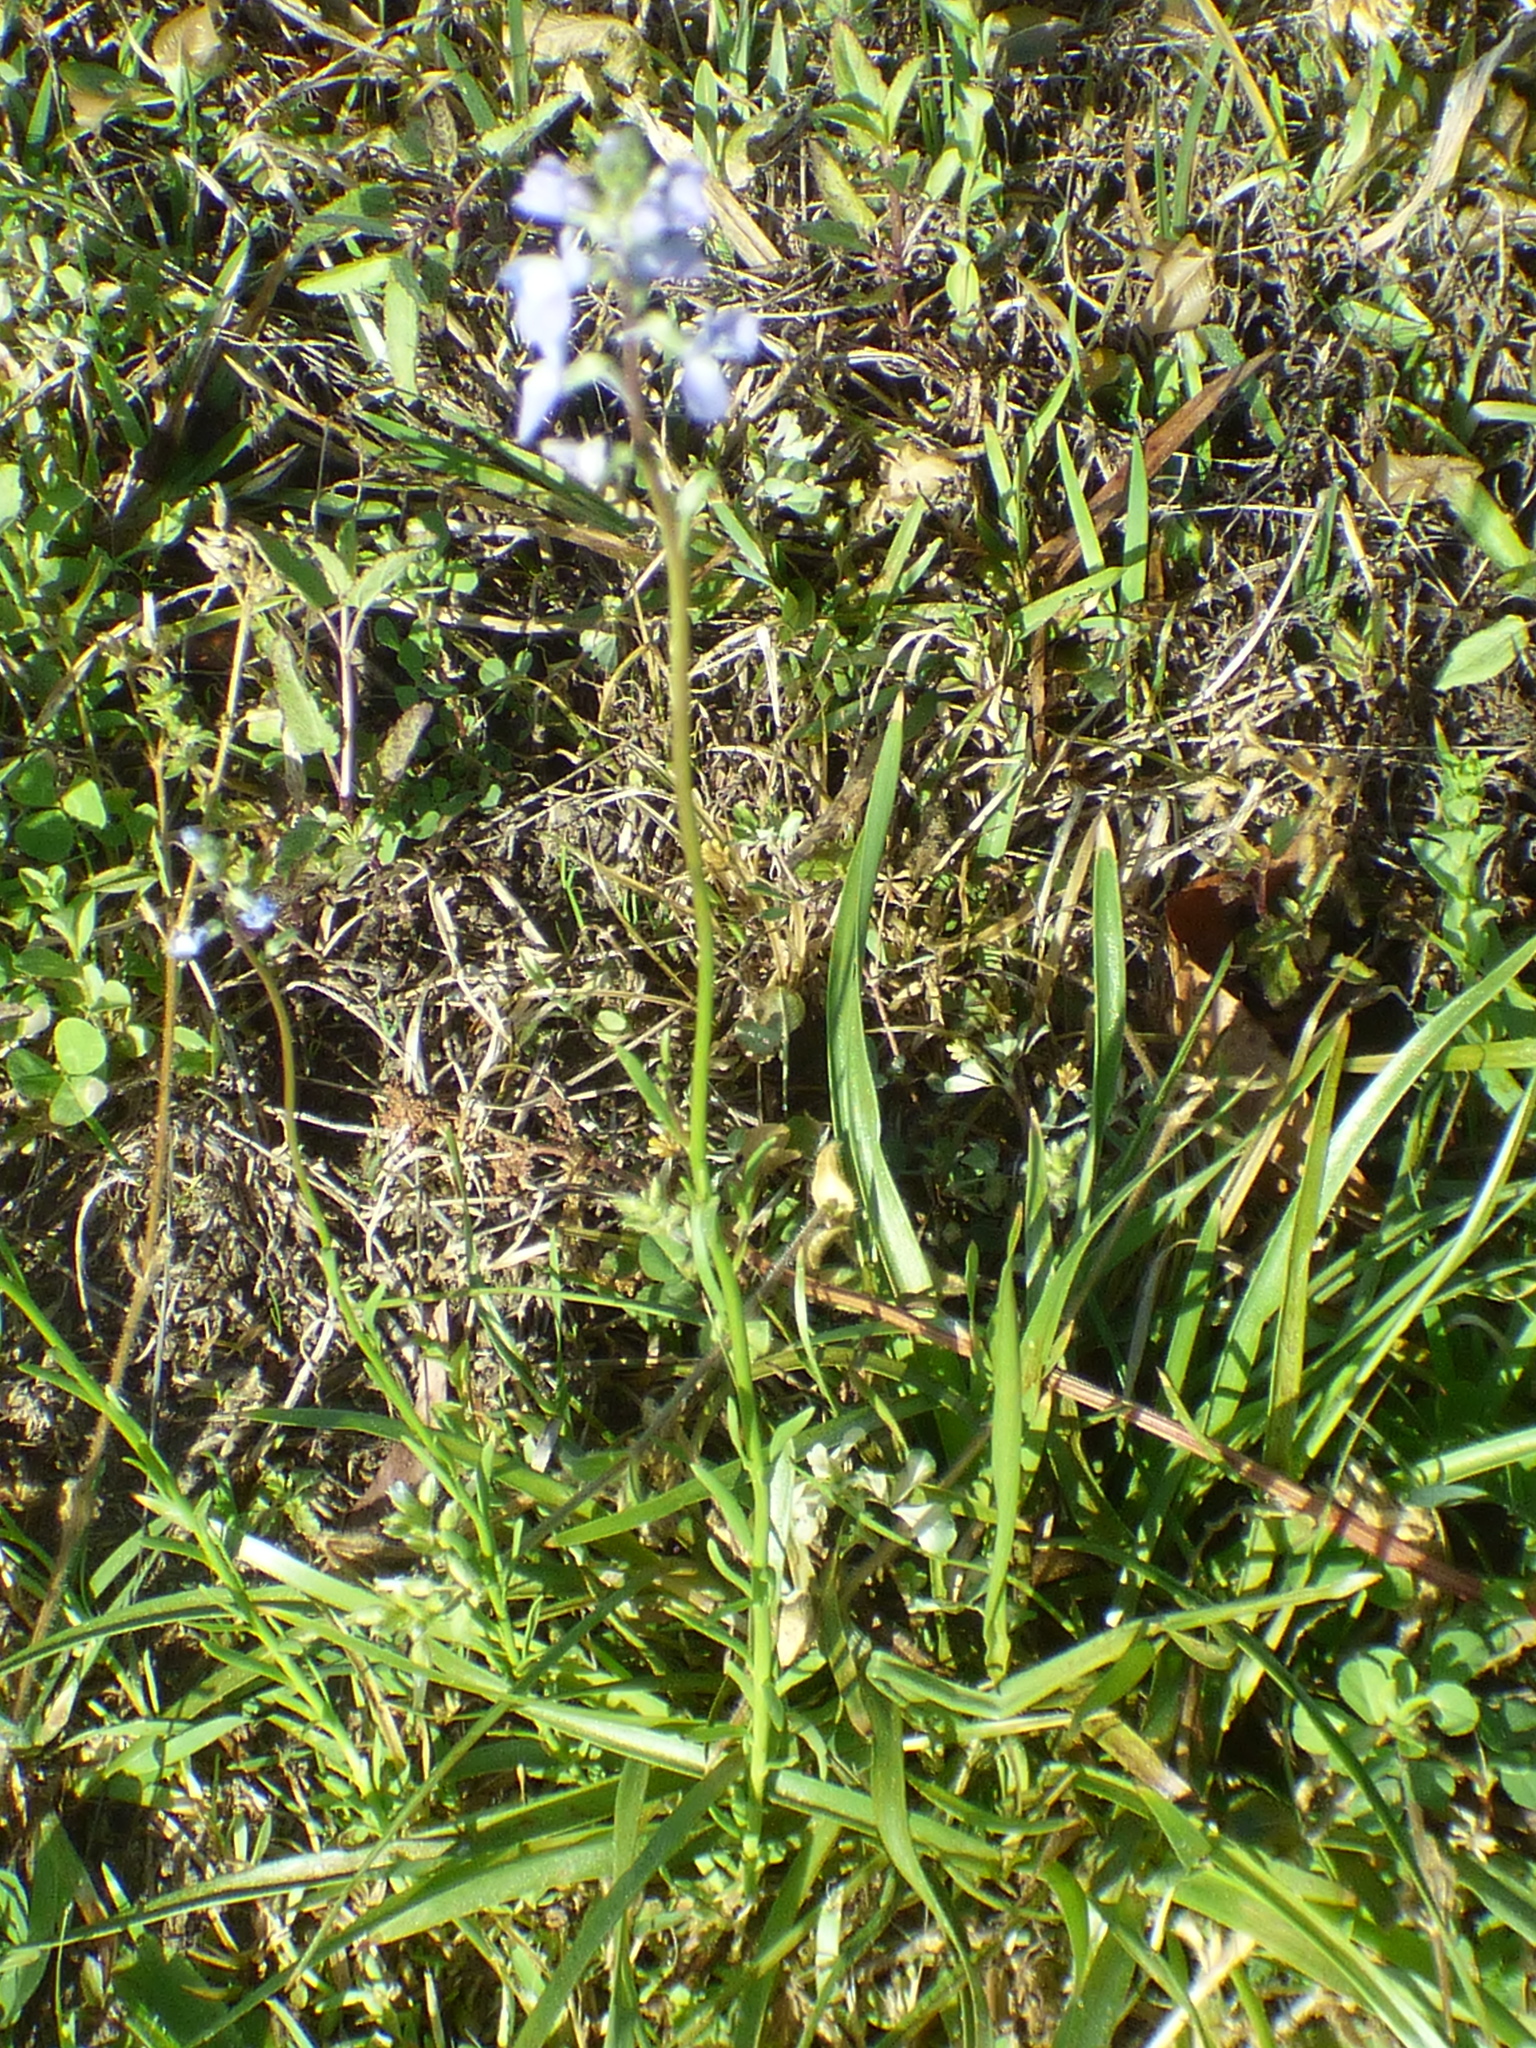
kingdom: Plantae
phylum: Tracheophyta
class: Magnoliopsida
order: Lamiales
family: Plantaginaceae
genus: Nuttallanthus
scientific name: Nuttallanthus canadensis
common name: Blue toadflax
